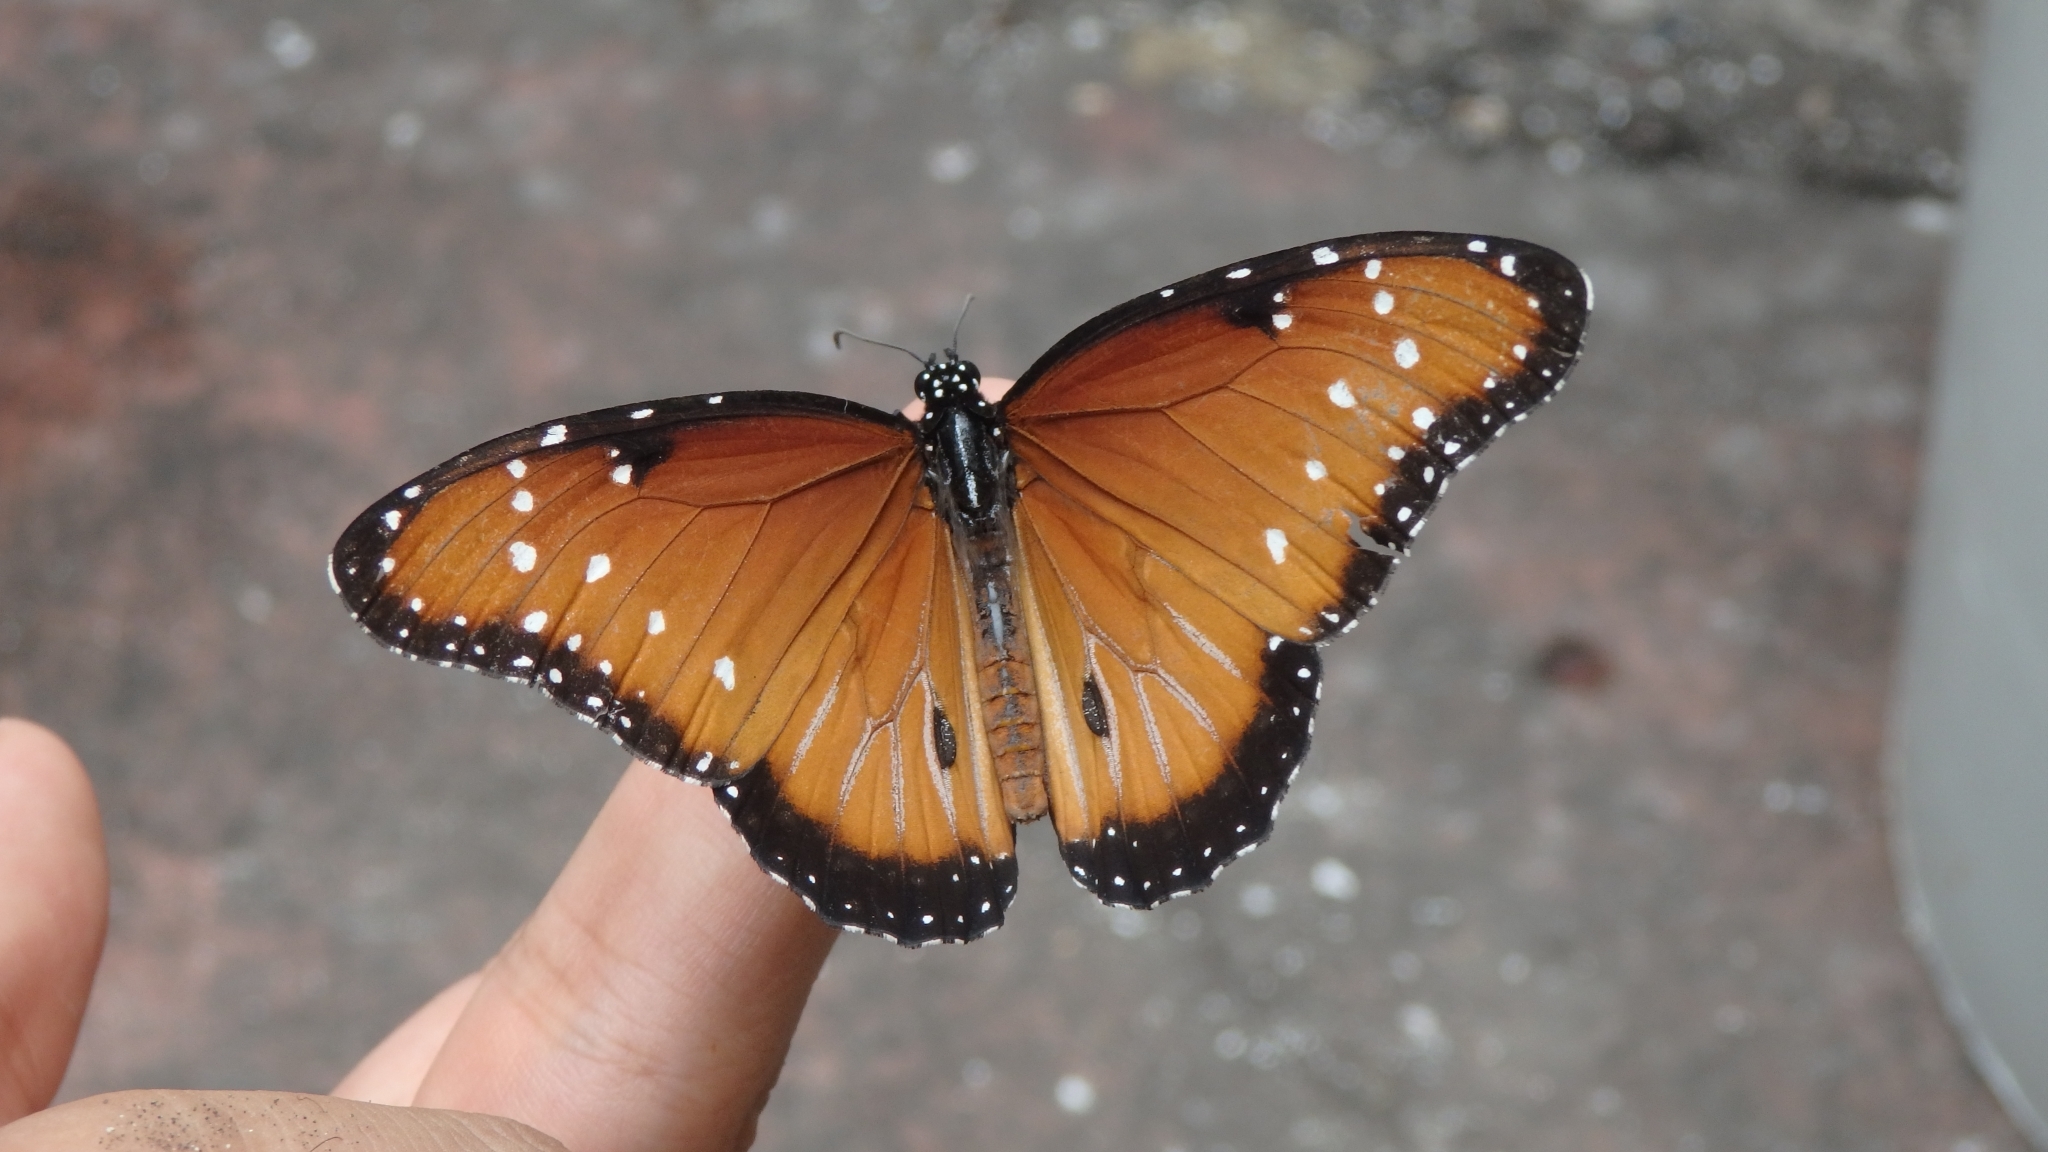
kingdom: Animalia
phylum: Arthropoda
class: Insecta
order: Lepidoptera
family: Nymphalidae
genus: Danaus
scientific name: Danaus gilippus
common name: Queen
